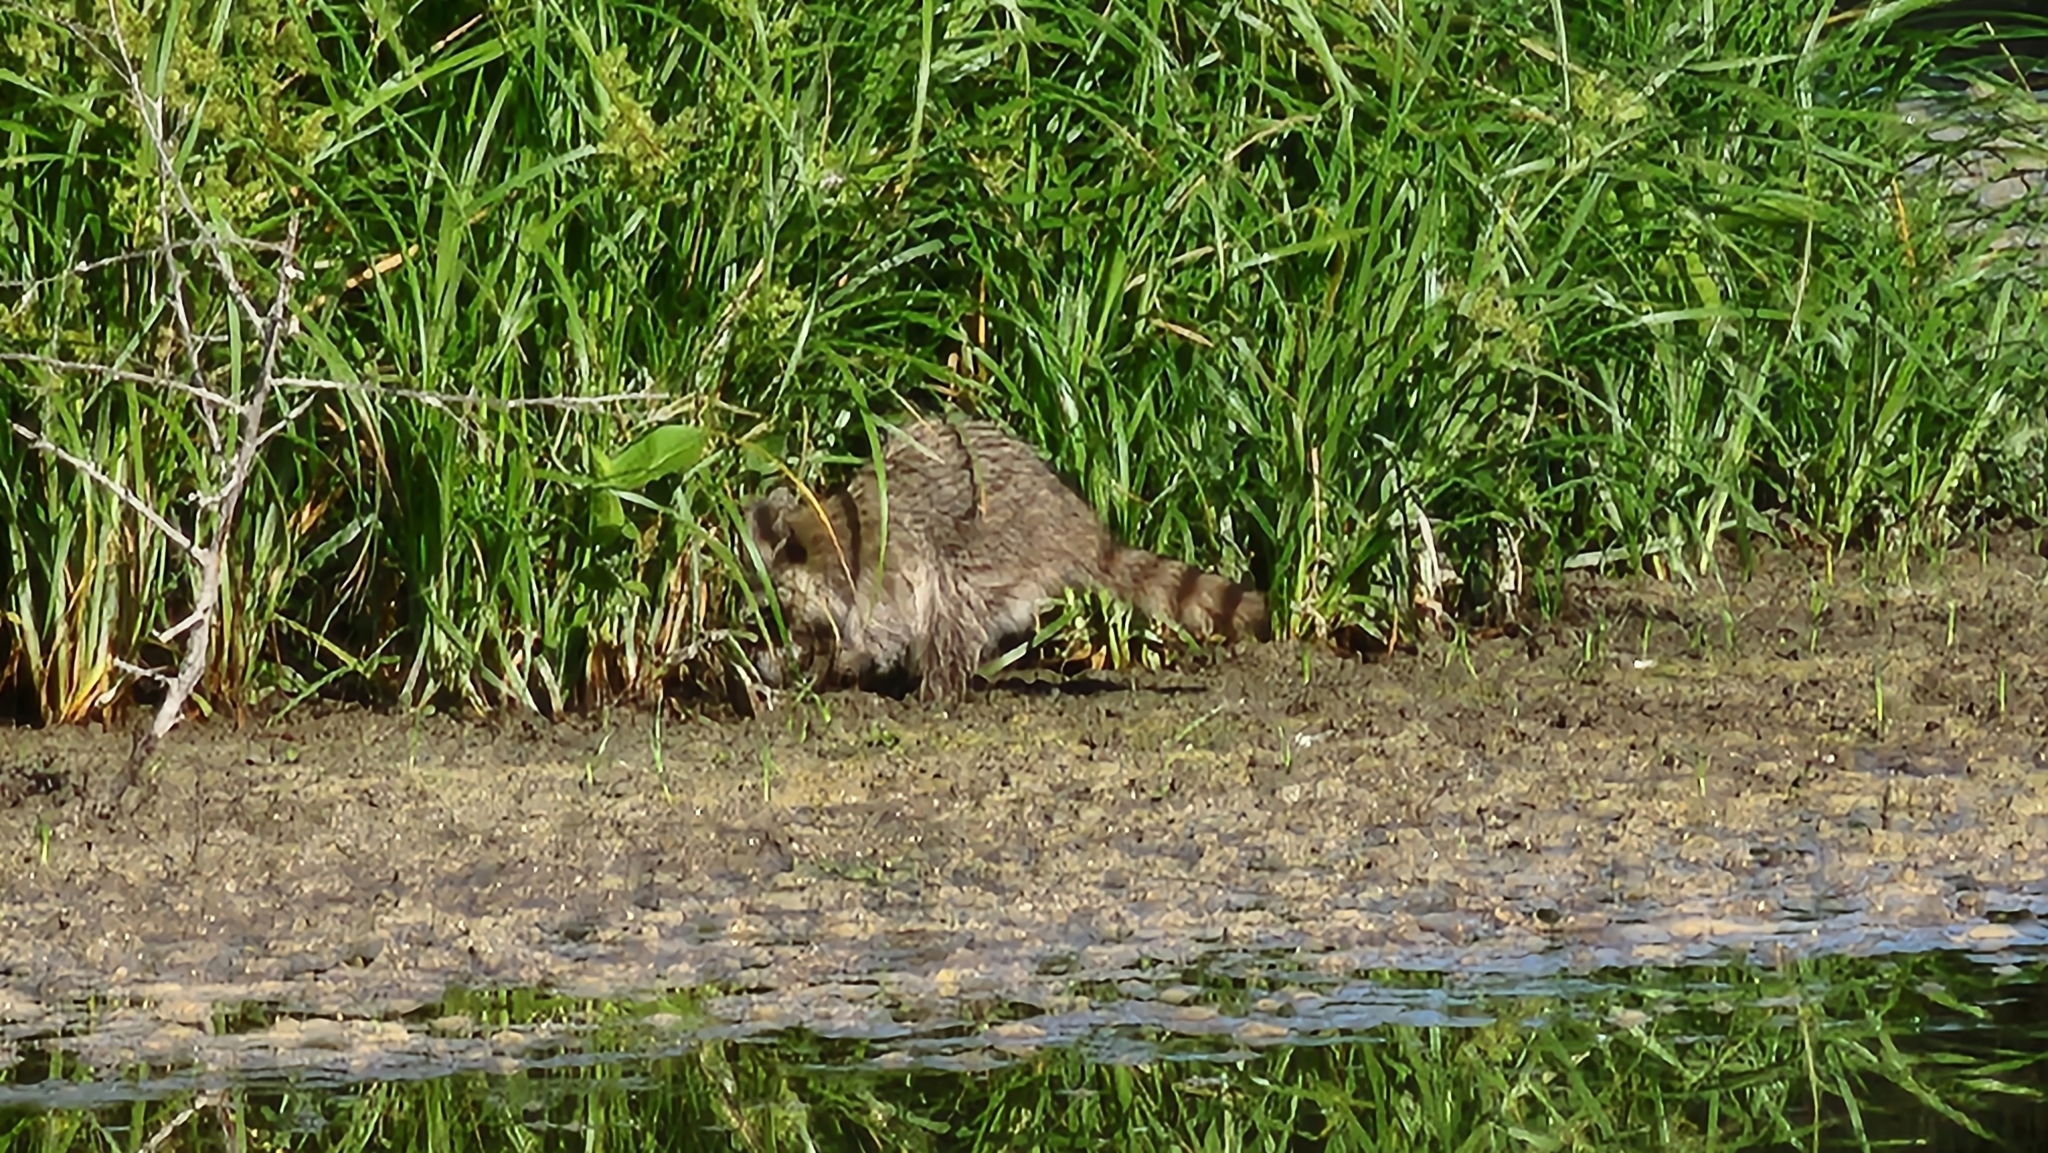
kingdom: Animalia
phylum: Chordata
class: Mammalia
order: Carnivora
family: Procyonidae
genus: Procyon
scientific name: Procyon lotor
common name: Raccoon
